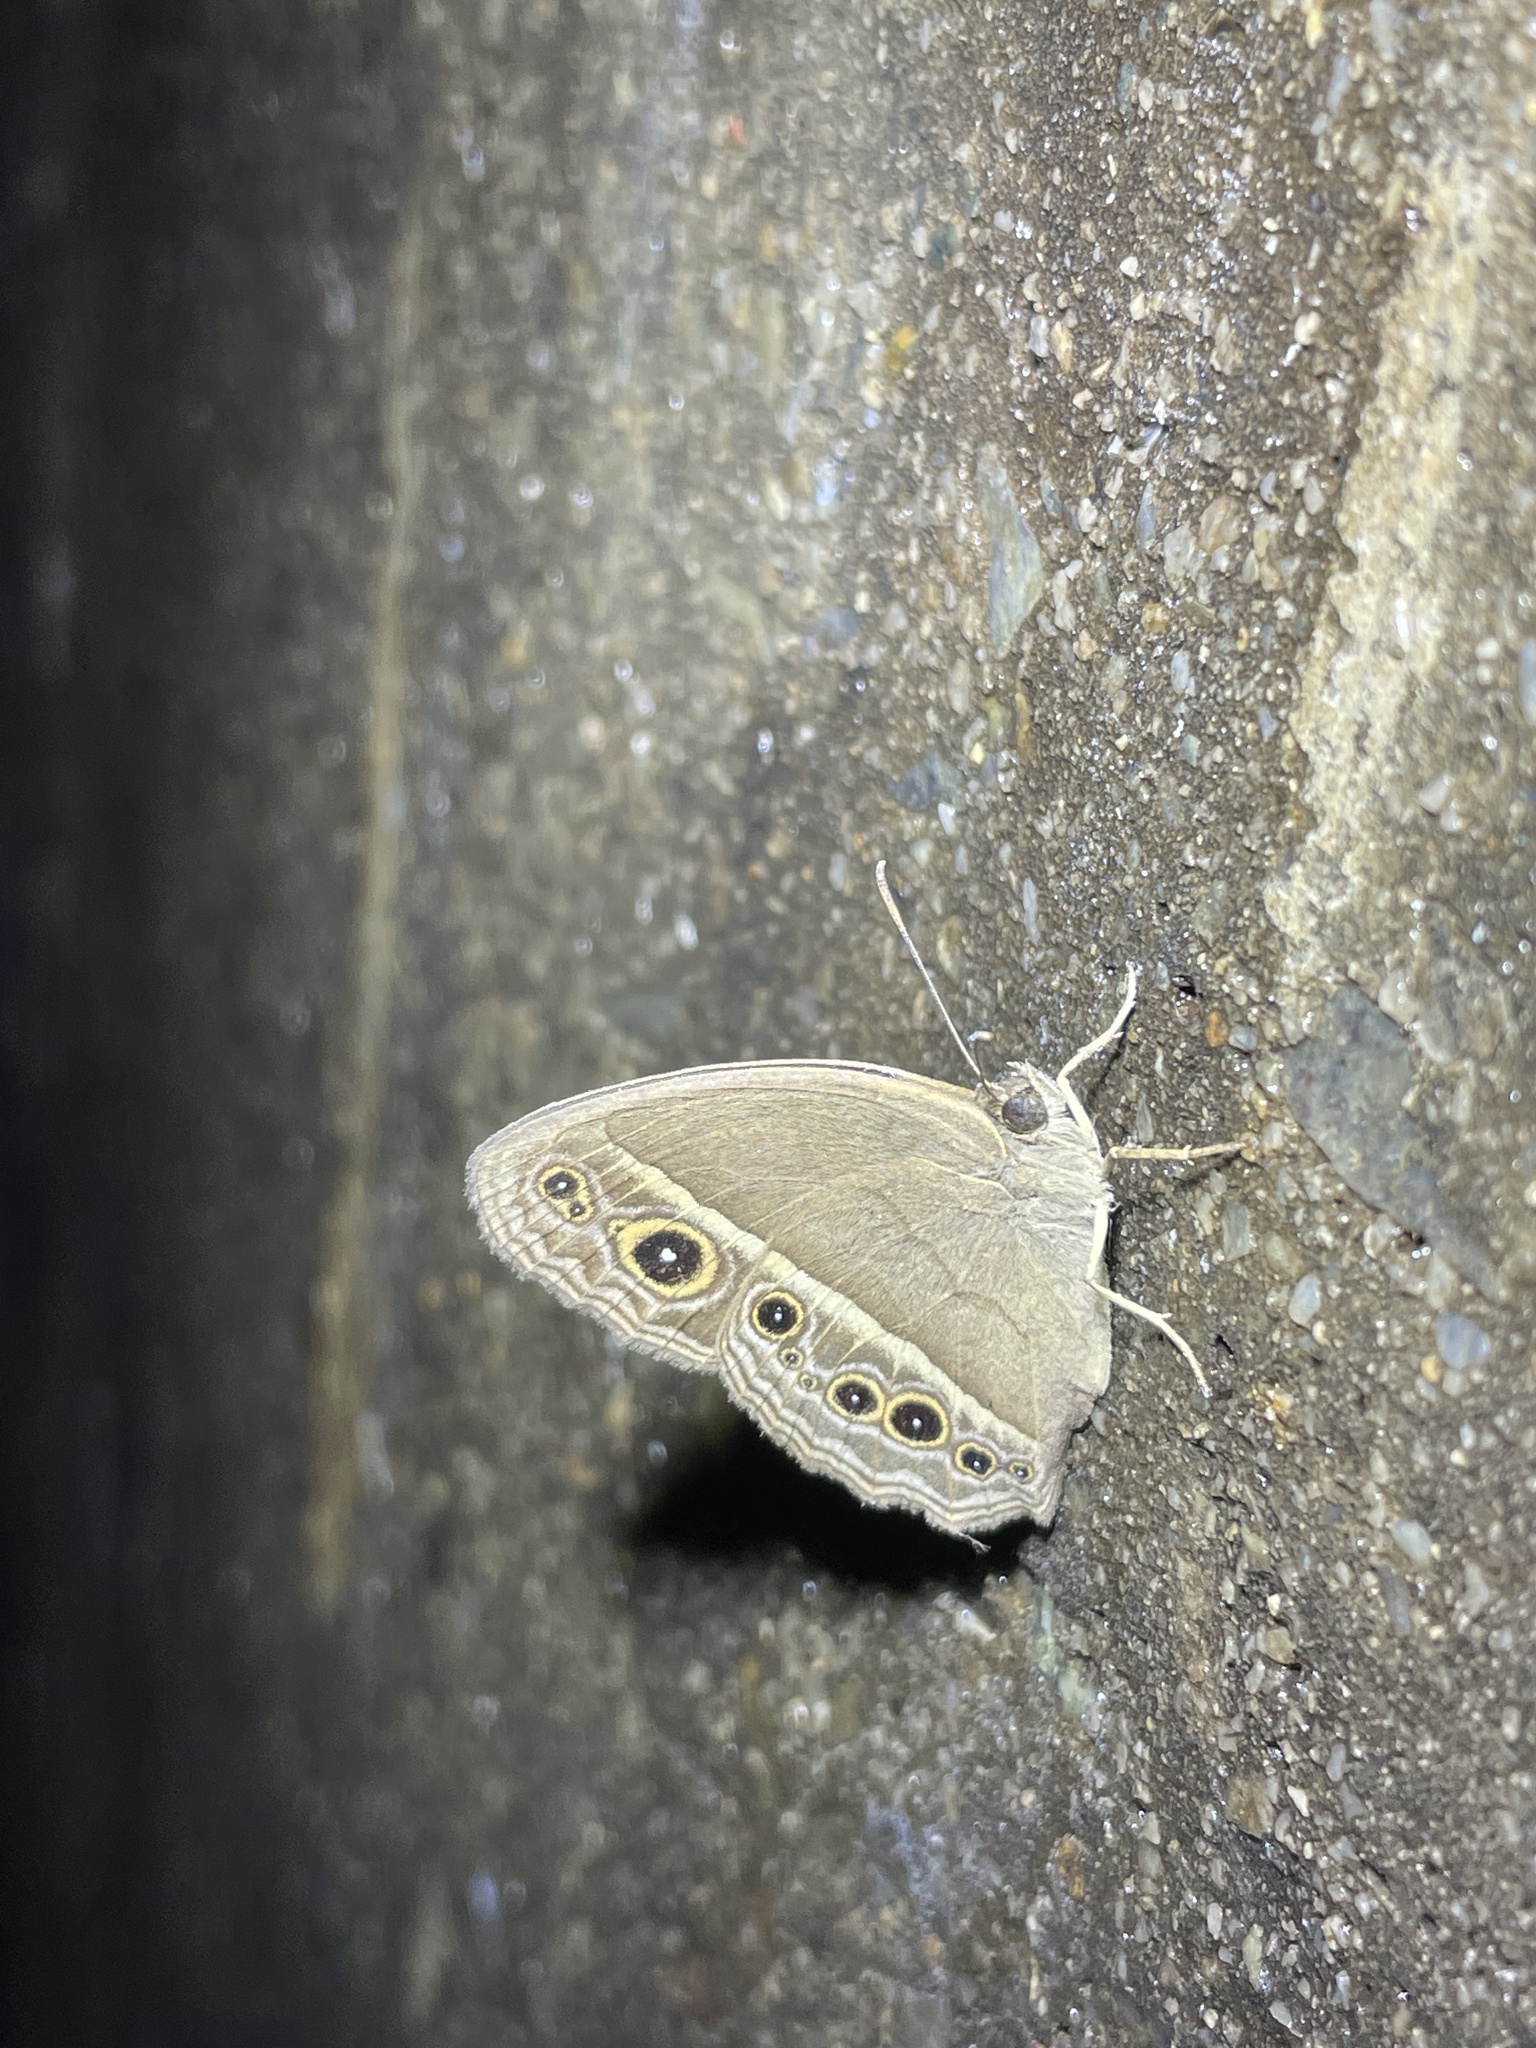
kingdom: Animalia
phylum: Arthropoda
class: Insecta
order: Lepidoptera
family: Nymphalidae
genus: Mycalesis
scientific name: Mycalesis mineus
